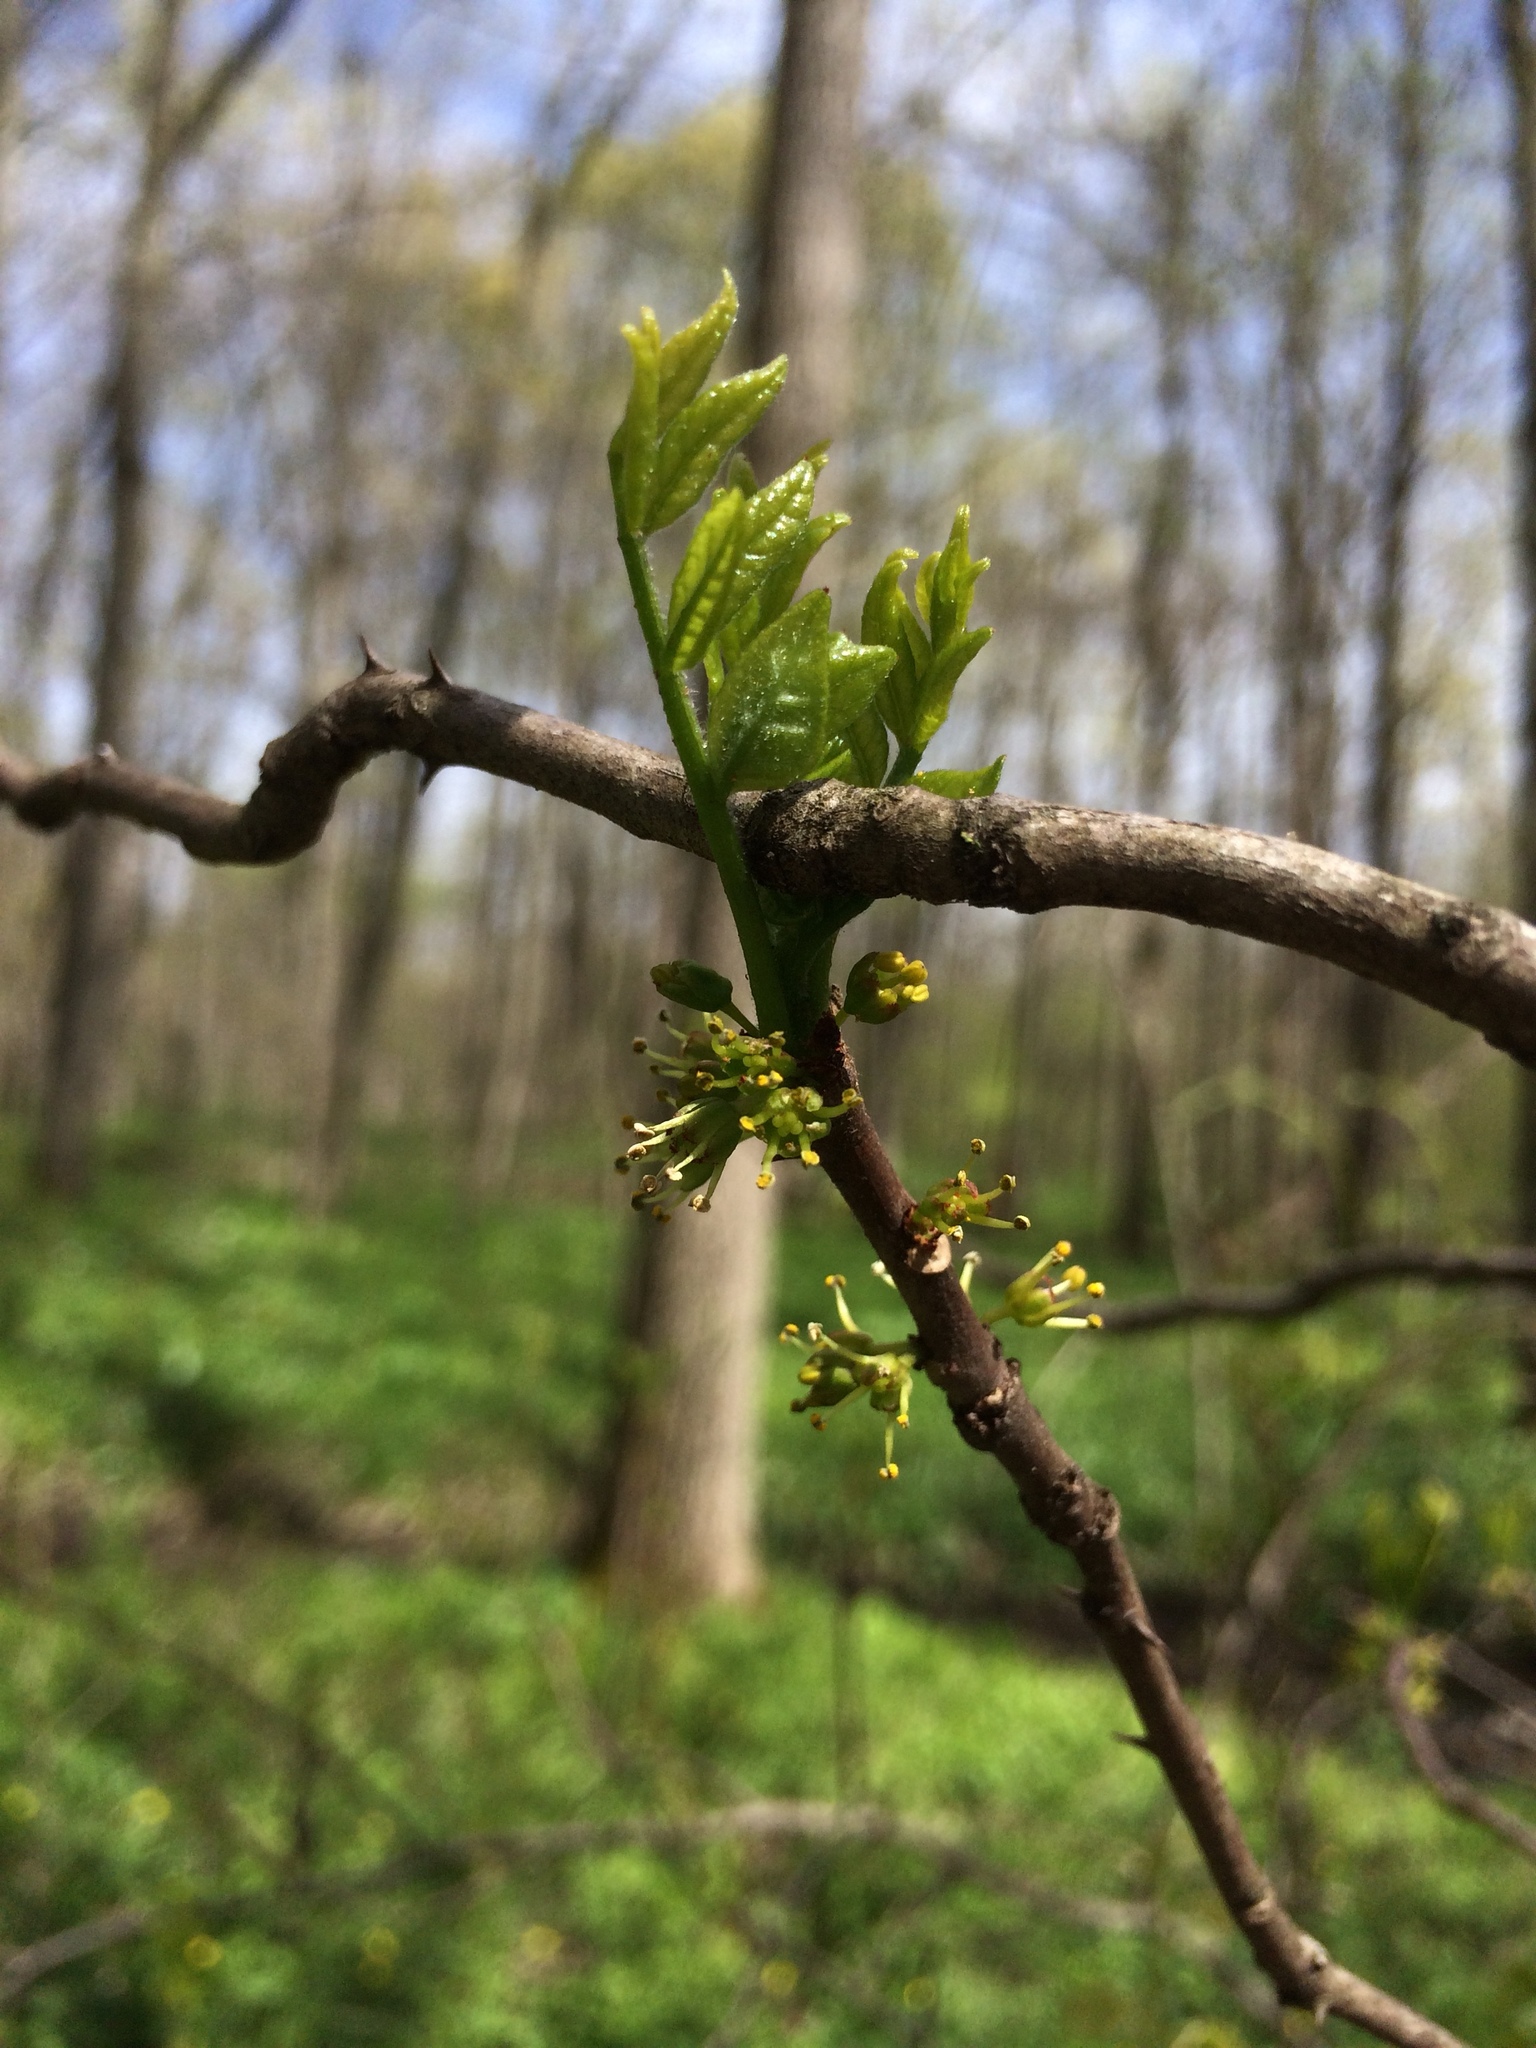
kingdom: Plantae
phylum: Tracheophyta
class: Magnoliopsida
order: Sapindales
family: Rutaceae
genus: Zanthoxylum
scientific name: Zanthoxylum americanum
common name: Northern prickly-ash
